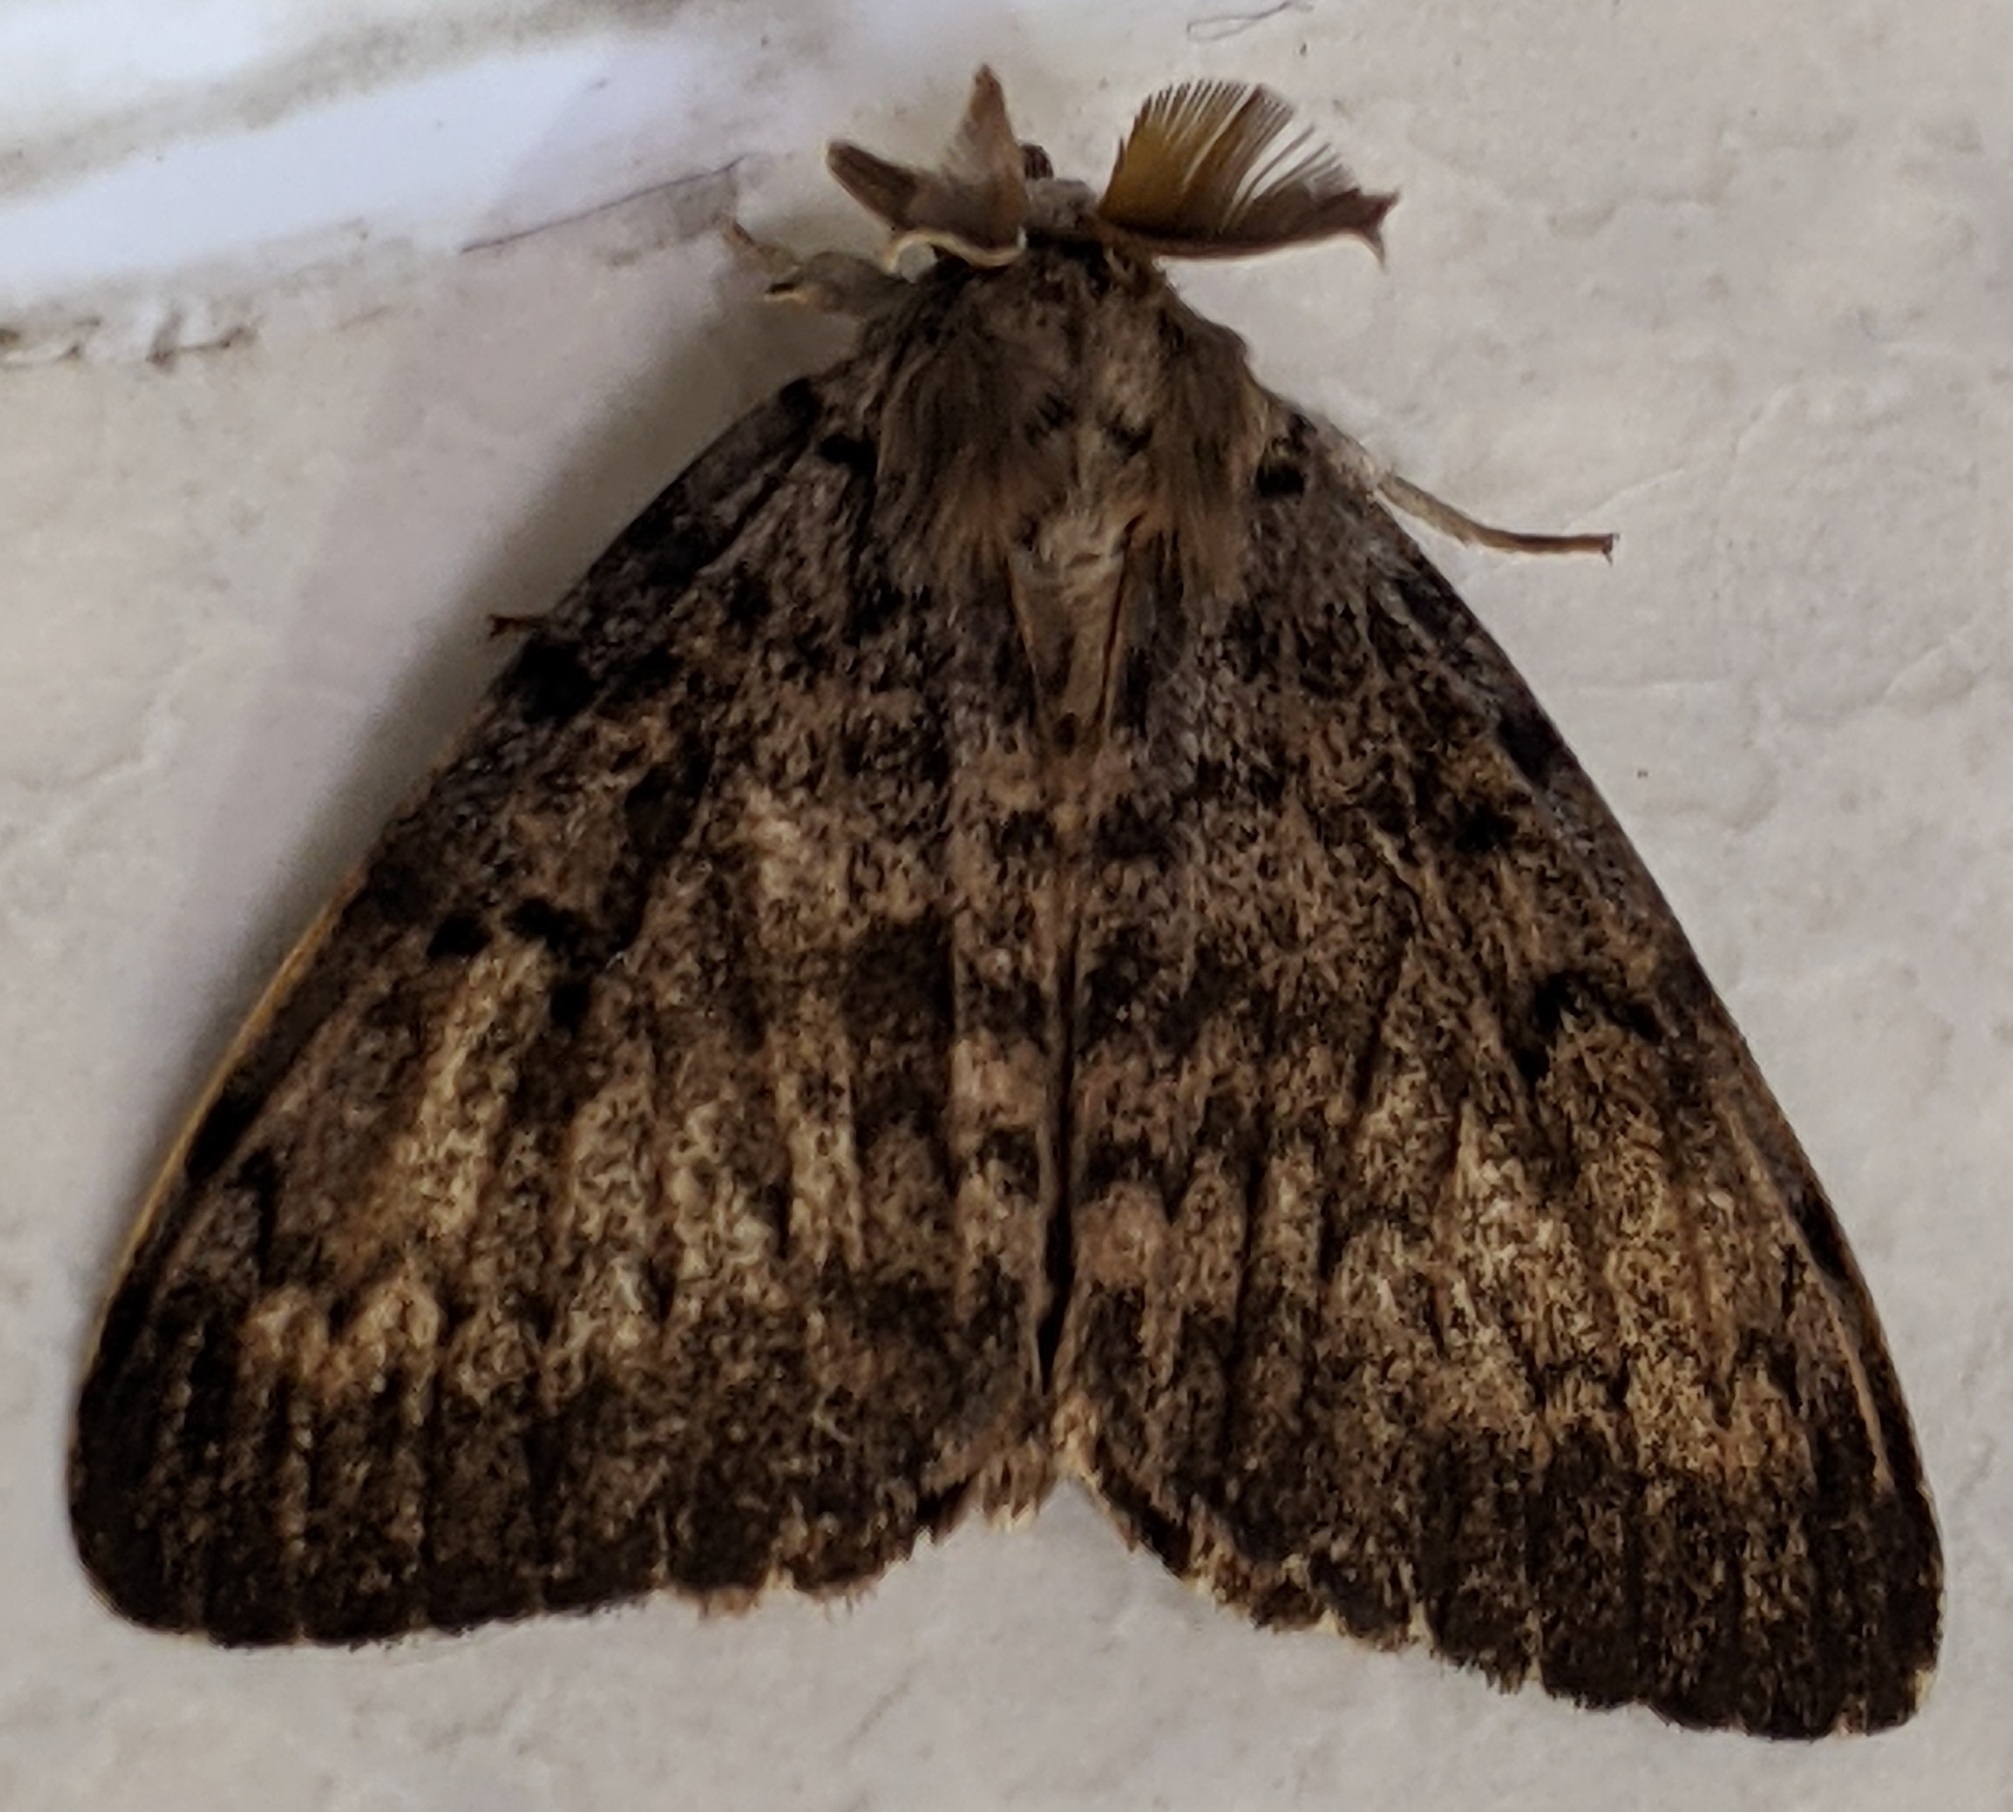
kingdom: Animalia
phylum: Arthropoda
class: Insecta
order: Lepidoptera
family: Erebidae
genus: Lymantria
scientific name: Lymantria dispar
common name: Gypsy moth
